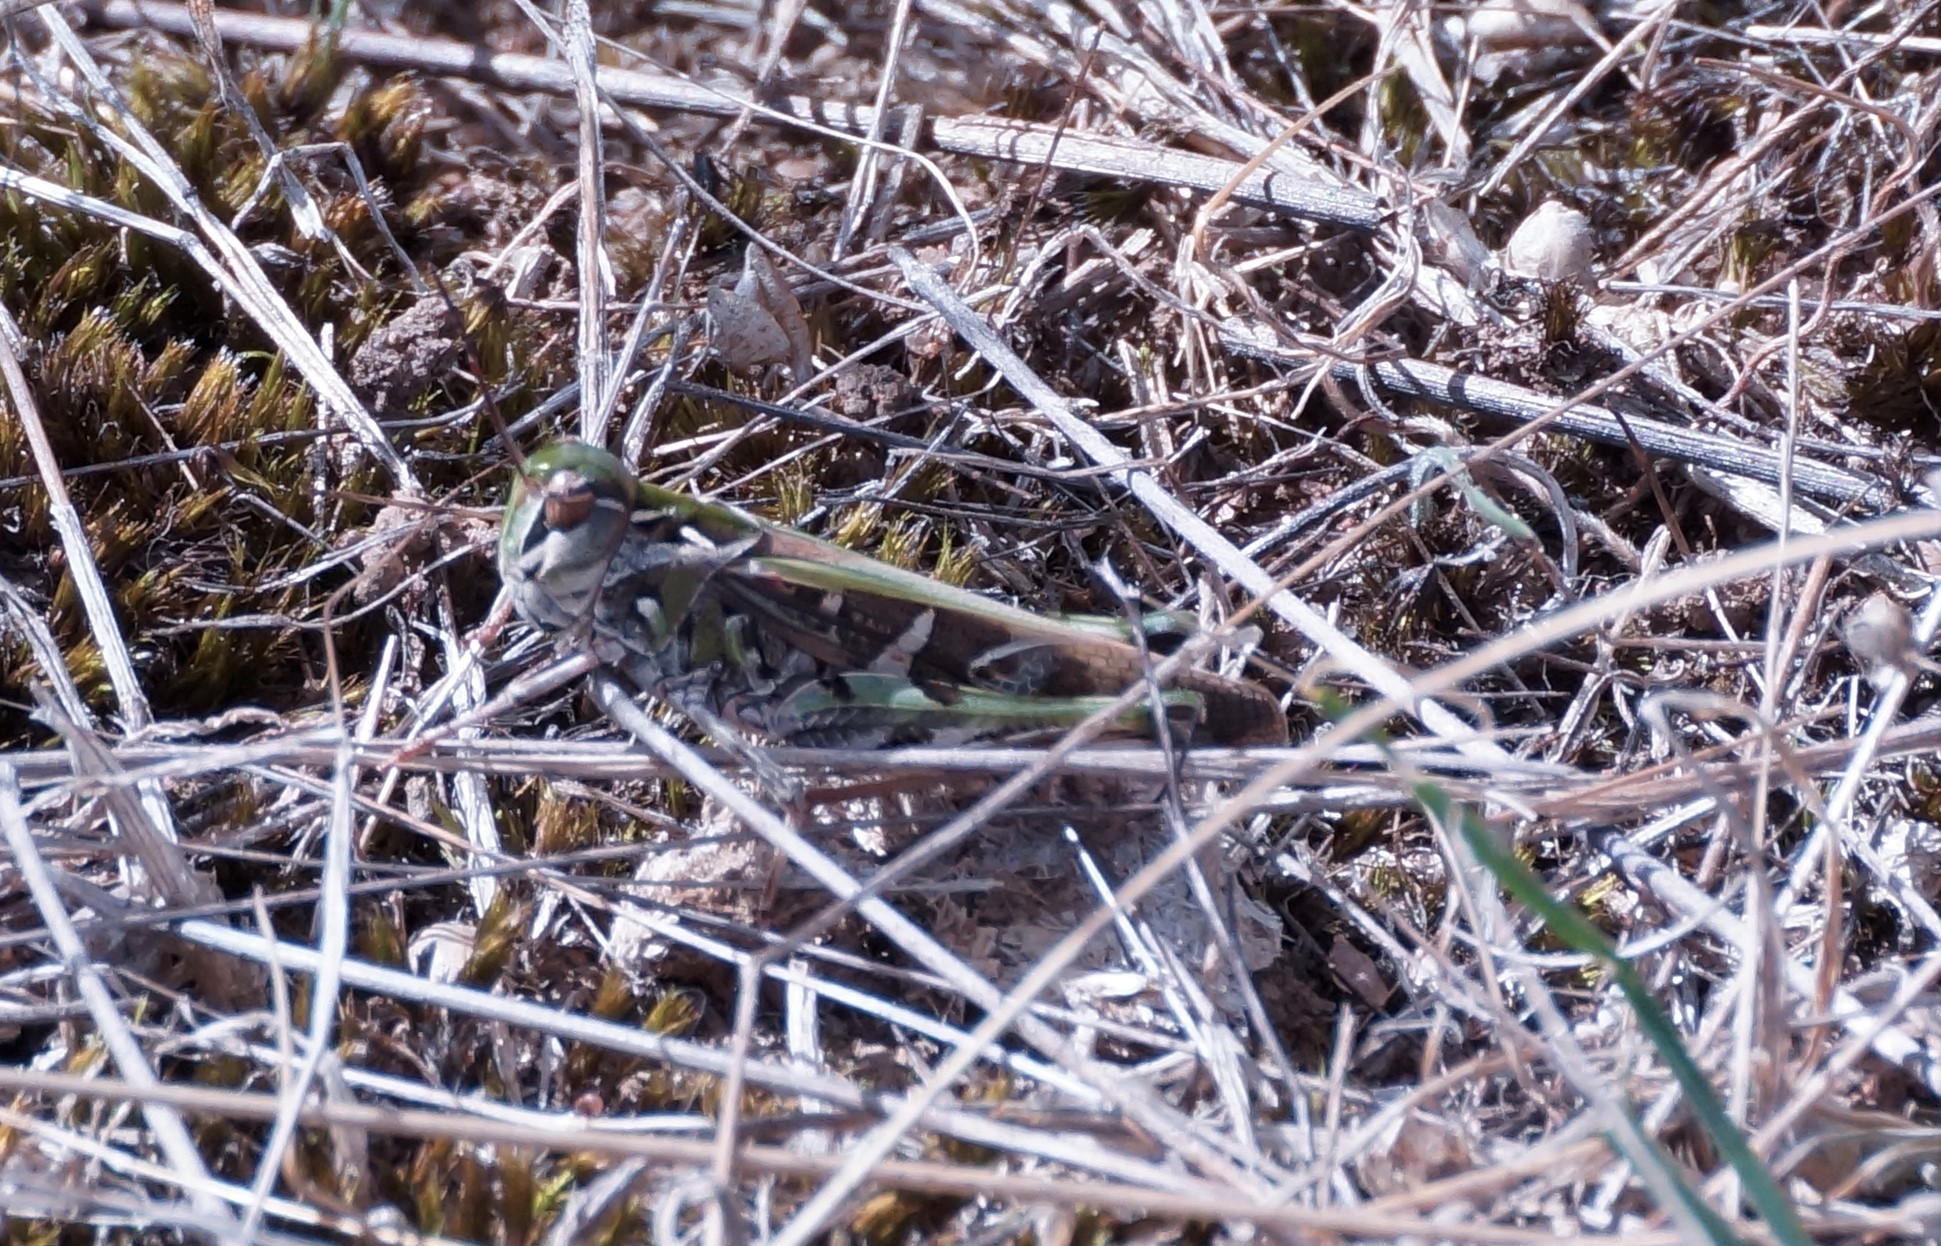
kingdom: Animalia
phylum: Arthropoda
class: Insecta
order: Orthoptera
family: Acrididae
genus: Oedaleus
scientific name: Oedaleus australis
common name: Eastern oedaleus
